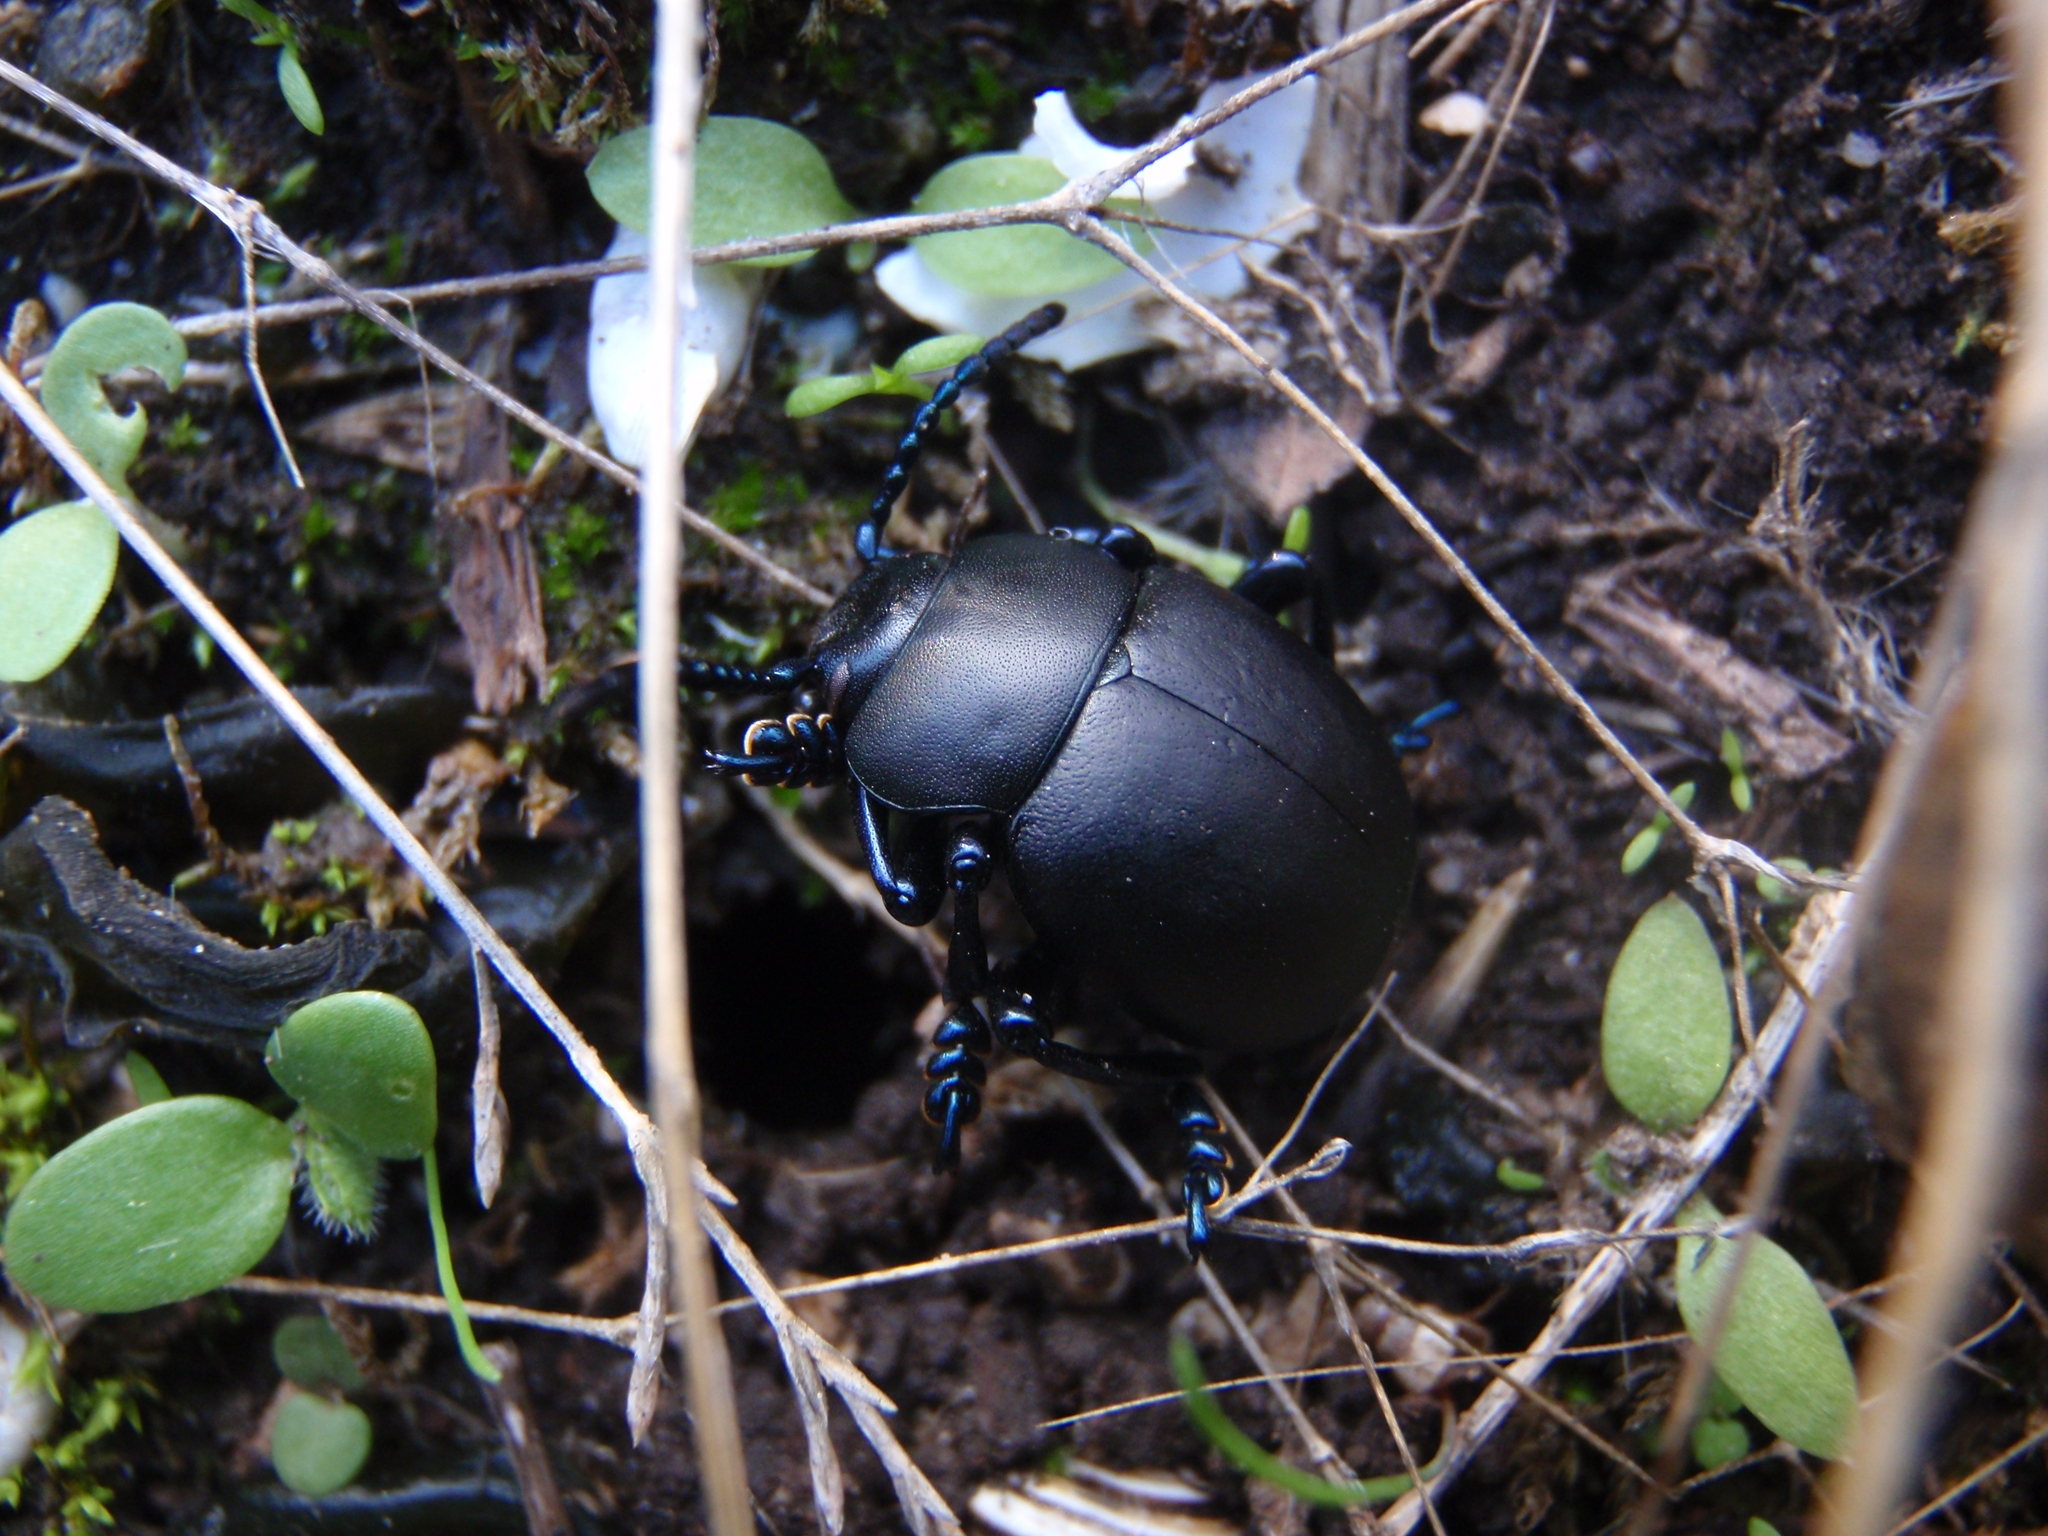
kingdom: Animalia
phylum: Arthropoda
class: Insecta
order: Coleoptera
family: Chrysomelidae
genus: Timarcha
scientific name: Timarcha tenebricosa
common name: Bloody-nosed beetle
